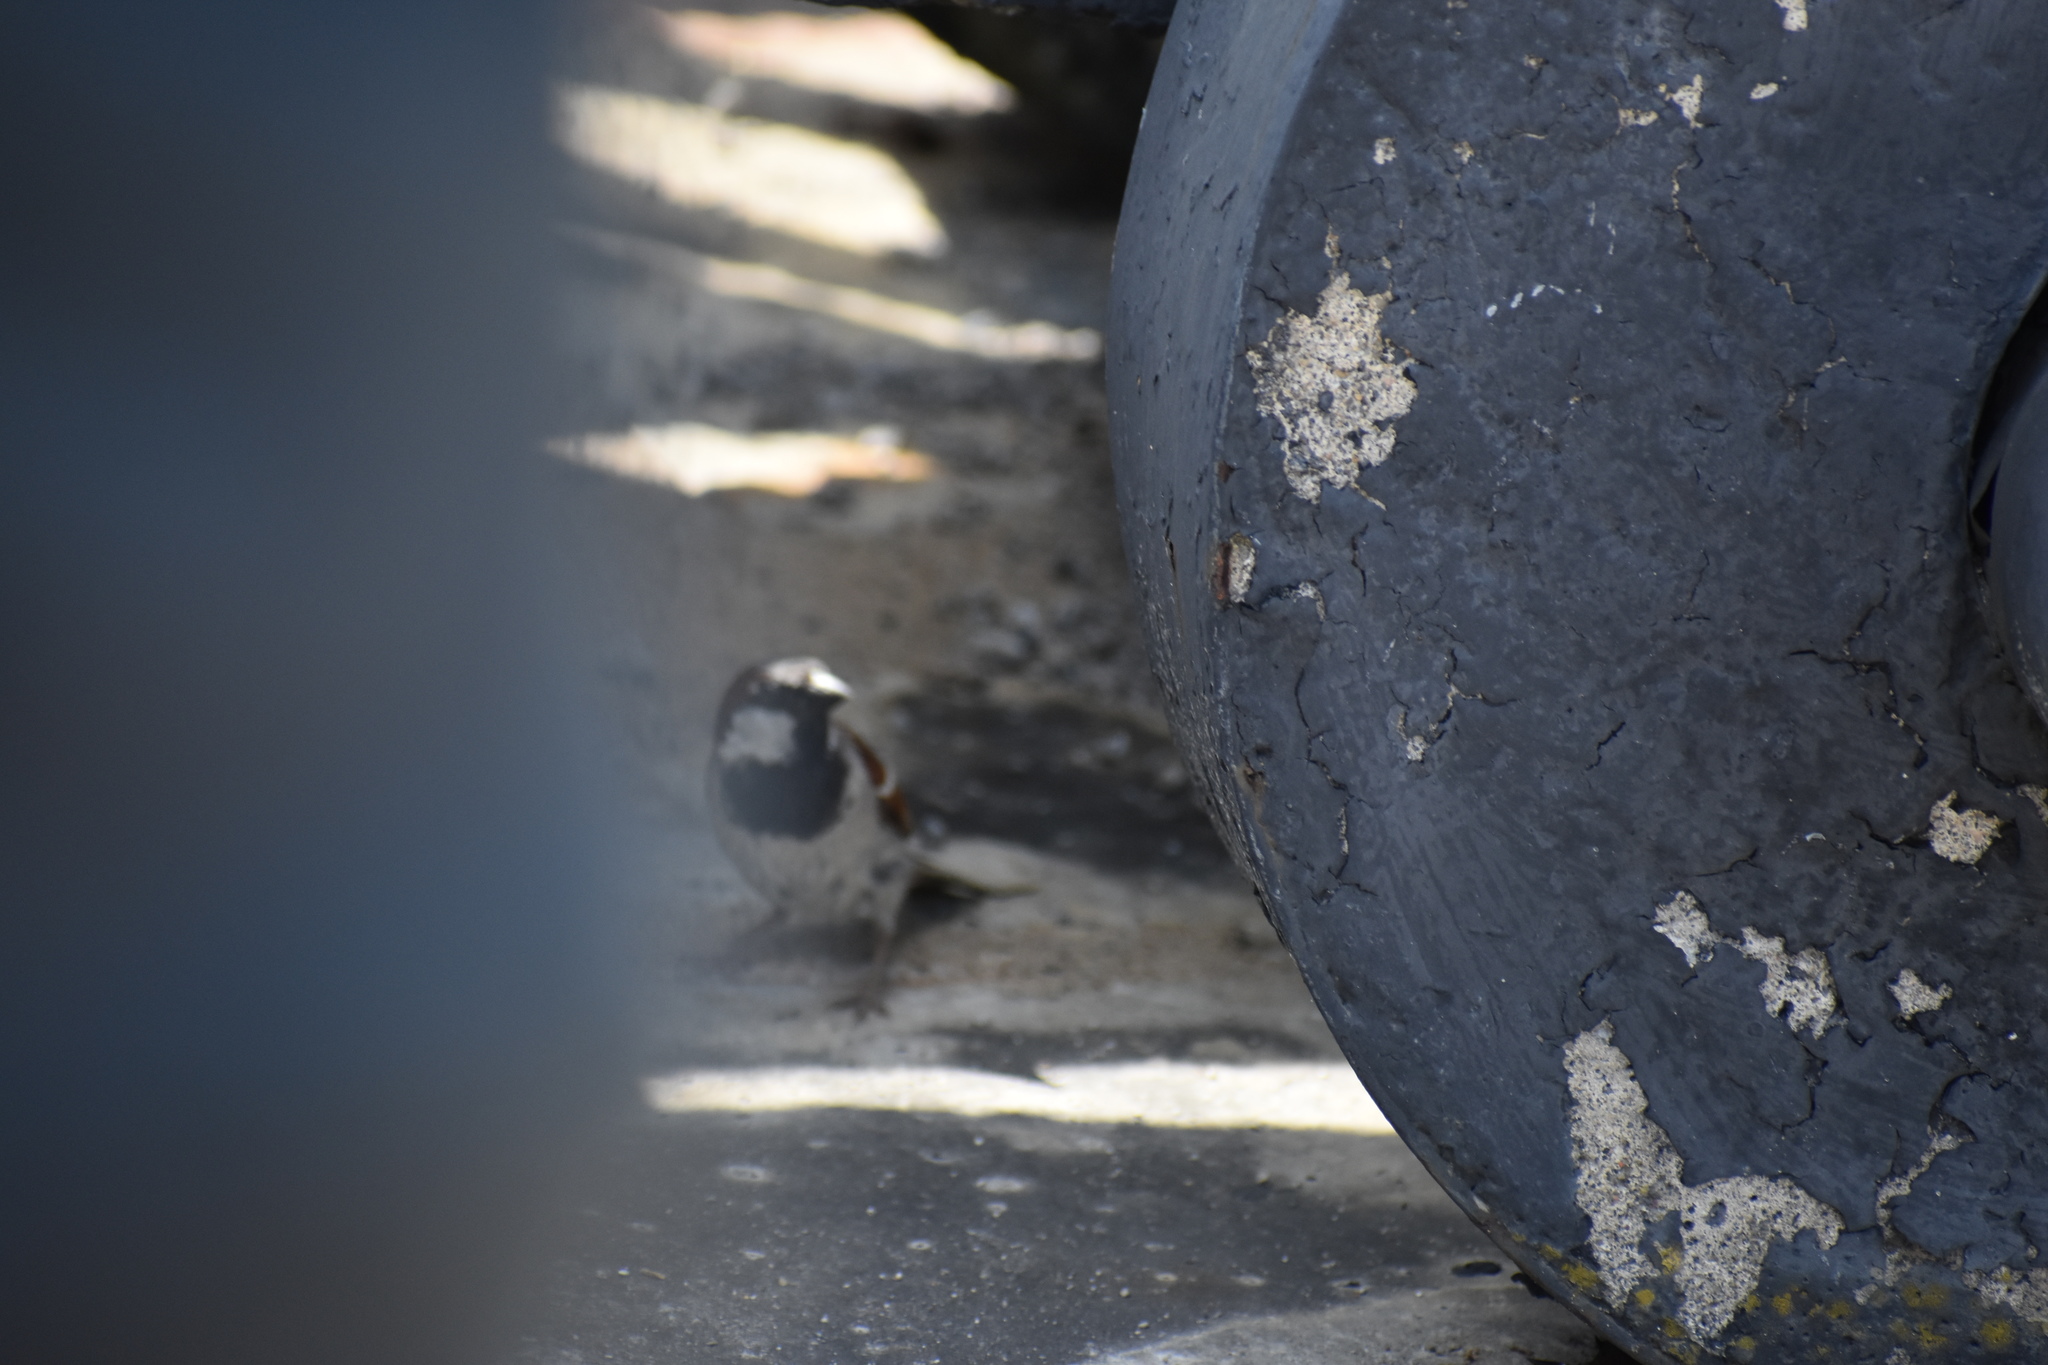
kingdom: Animalia
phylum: Chordata
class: Aves
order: Passeriformes
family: Passeridae
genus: Passer
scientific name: Passer domesticus
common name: House sparrow
